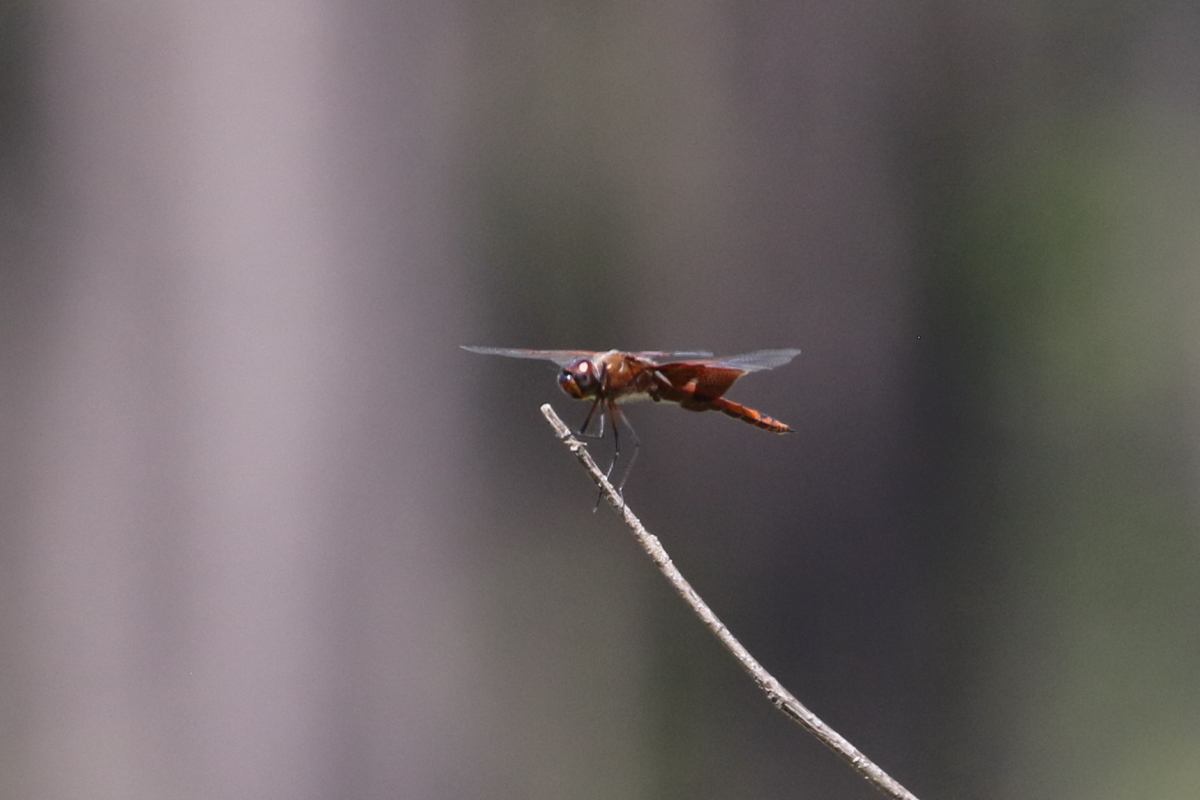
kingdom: Animalia
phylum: Arthropoda
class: Insecta
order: Odonata
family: Libellulidae
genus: Tramea
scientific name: Tramea carolina
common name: Carolina saddlebags
